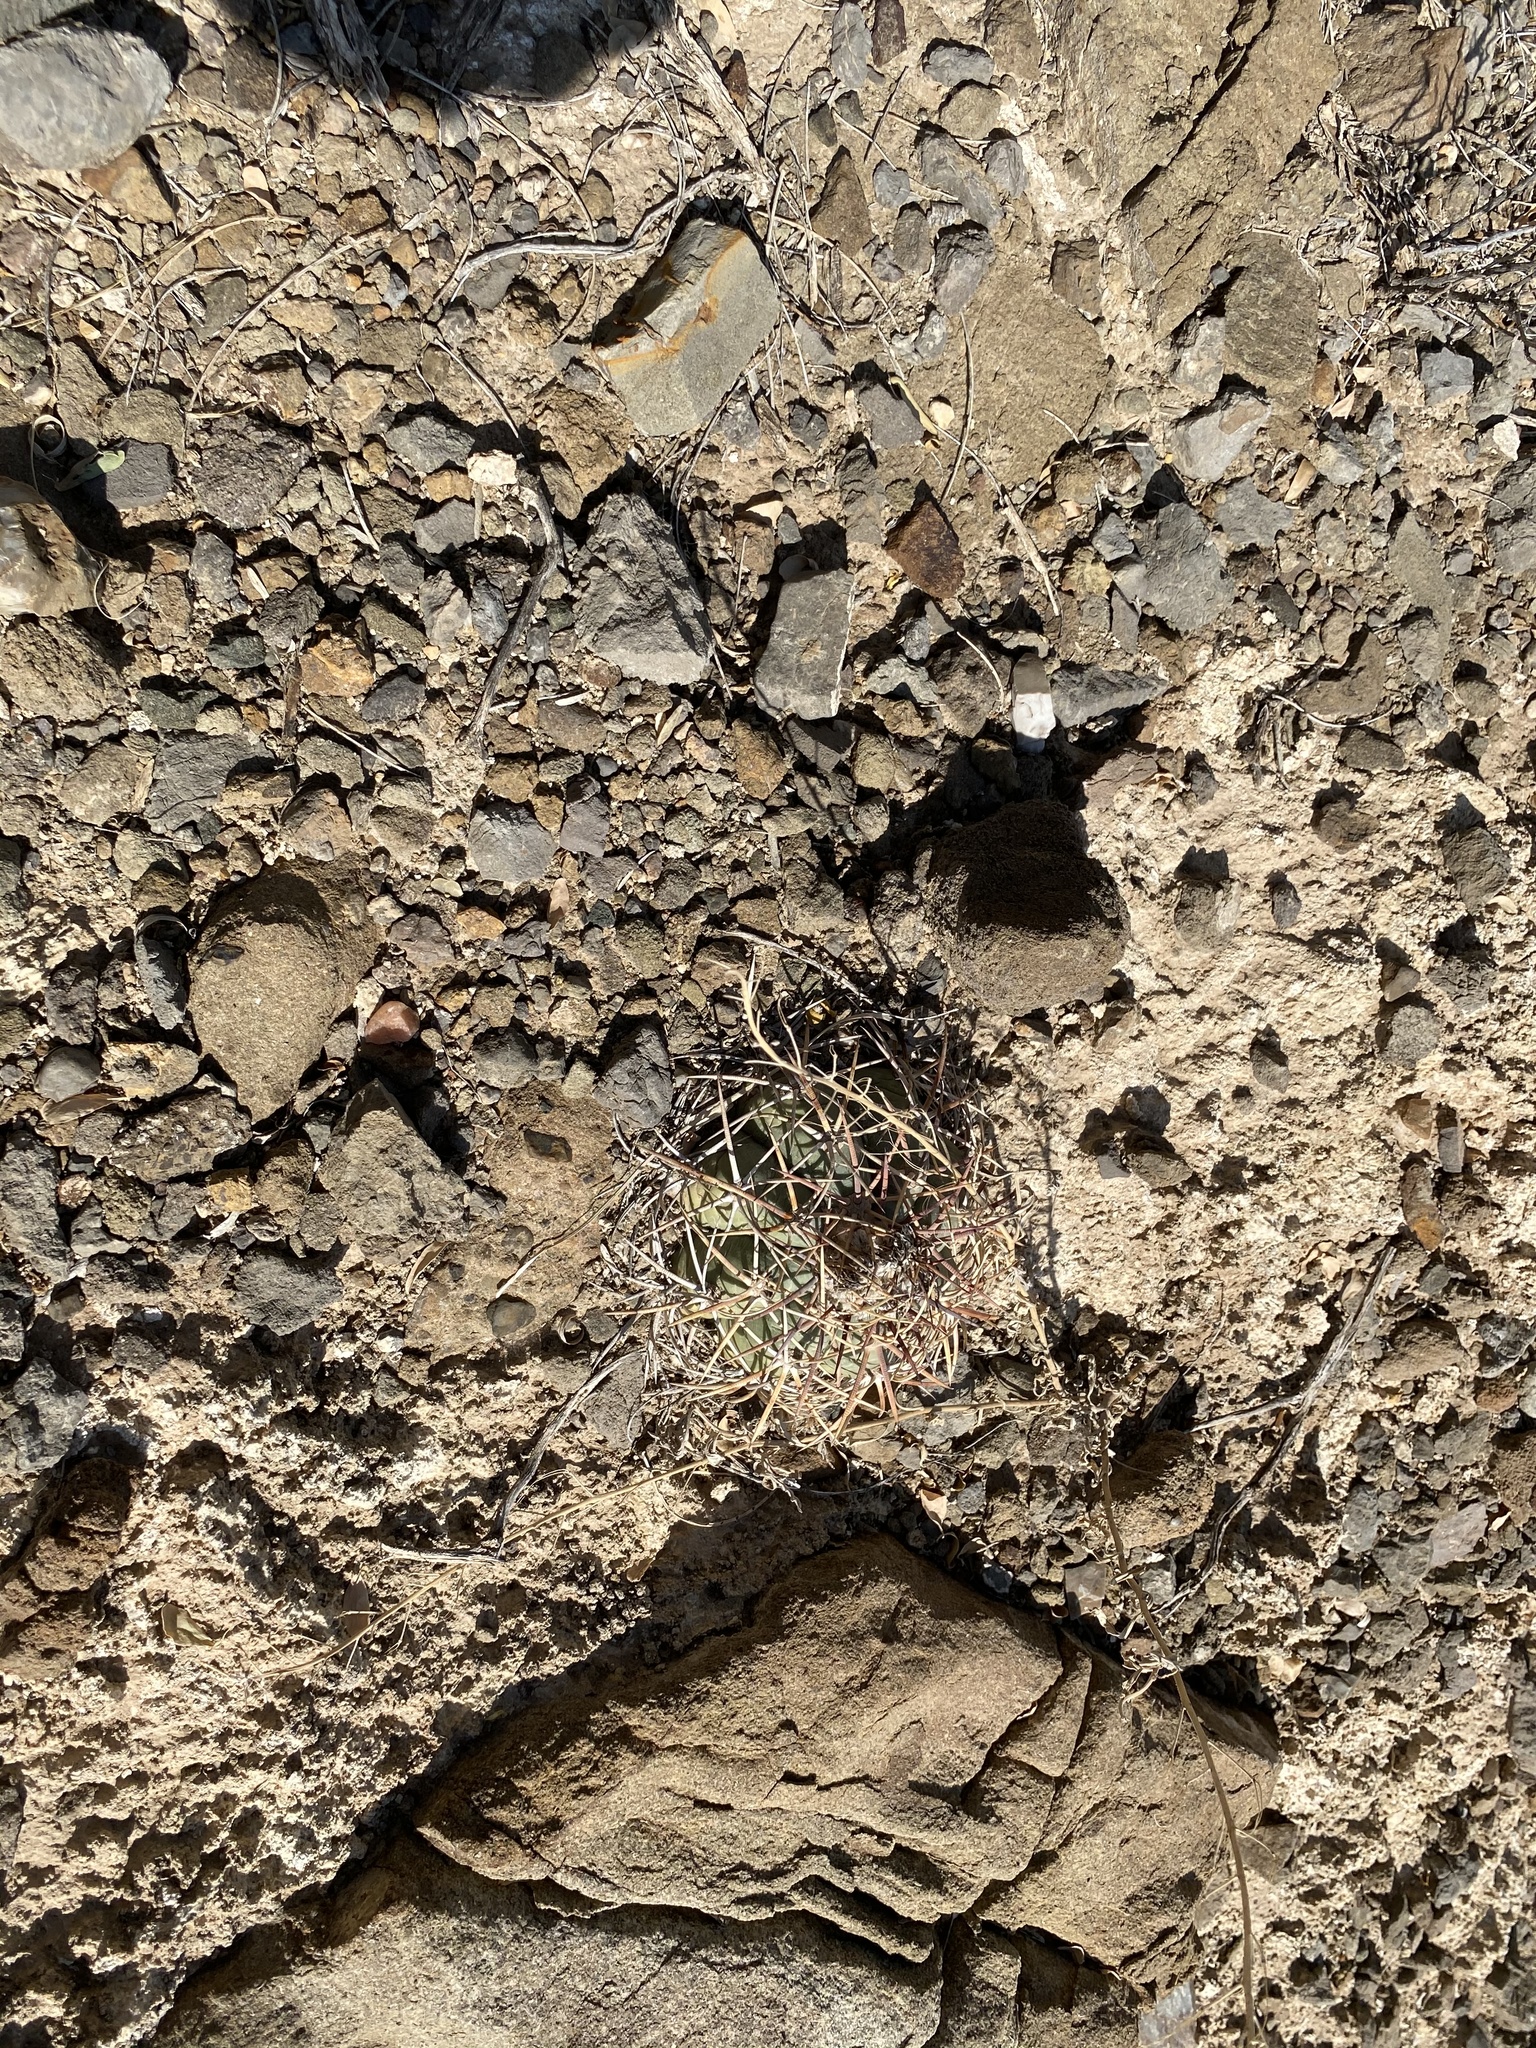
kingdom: Plantae
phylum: Tracheophyta
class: Magnoliopsida
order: Caryophyllales
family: Cactaceae
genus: Echinocactus
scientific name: Echinocactus horizonthalonius
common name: Devilshead
